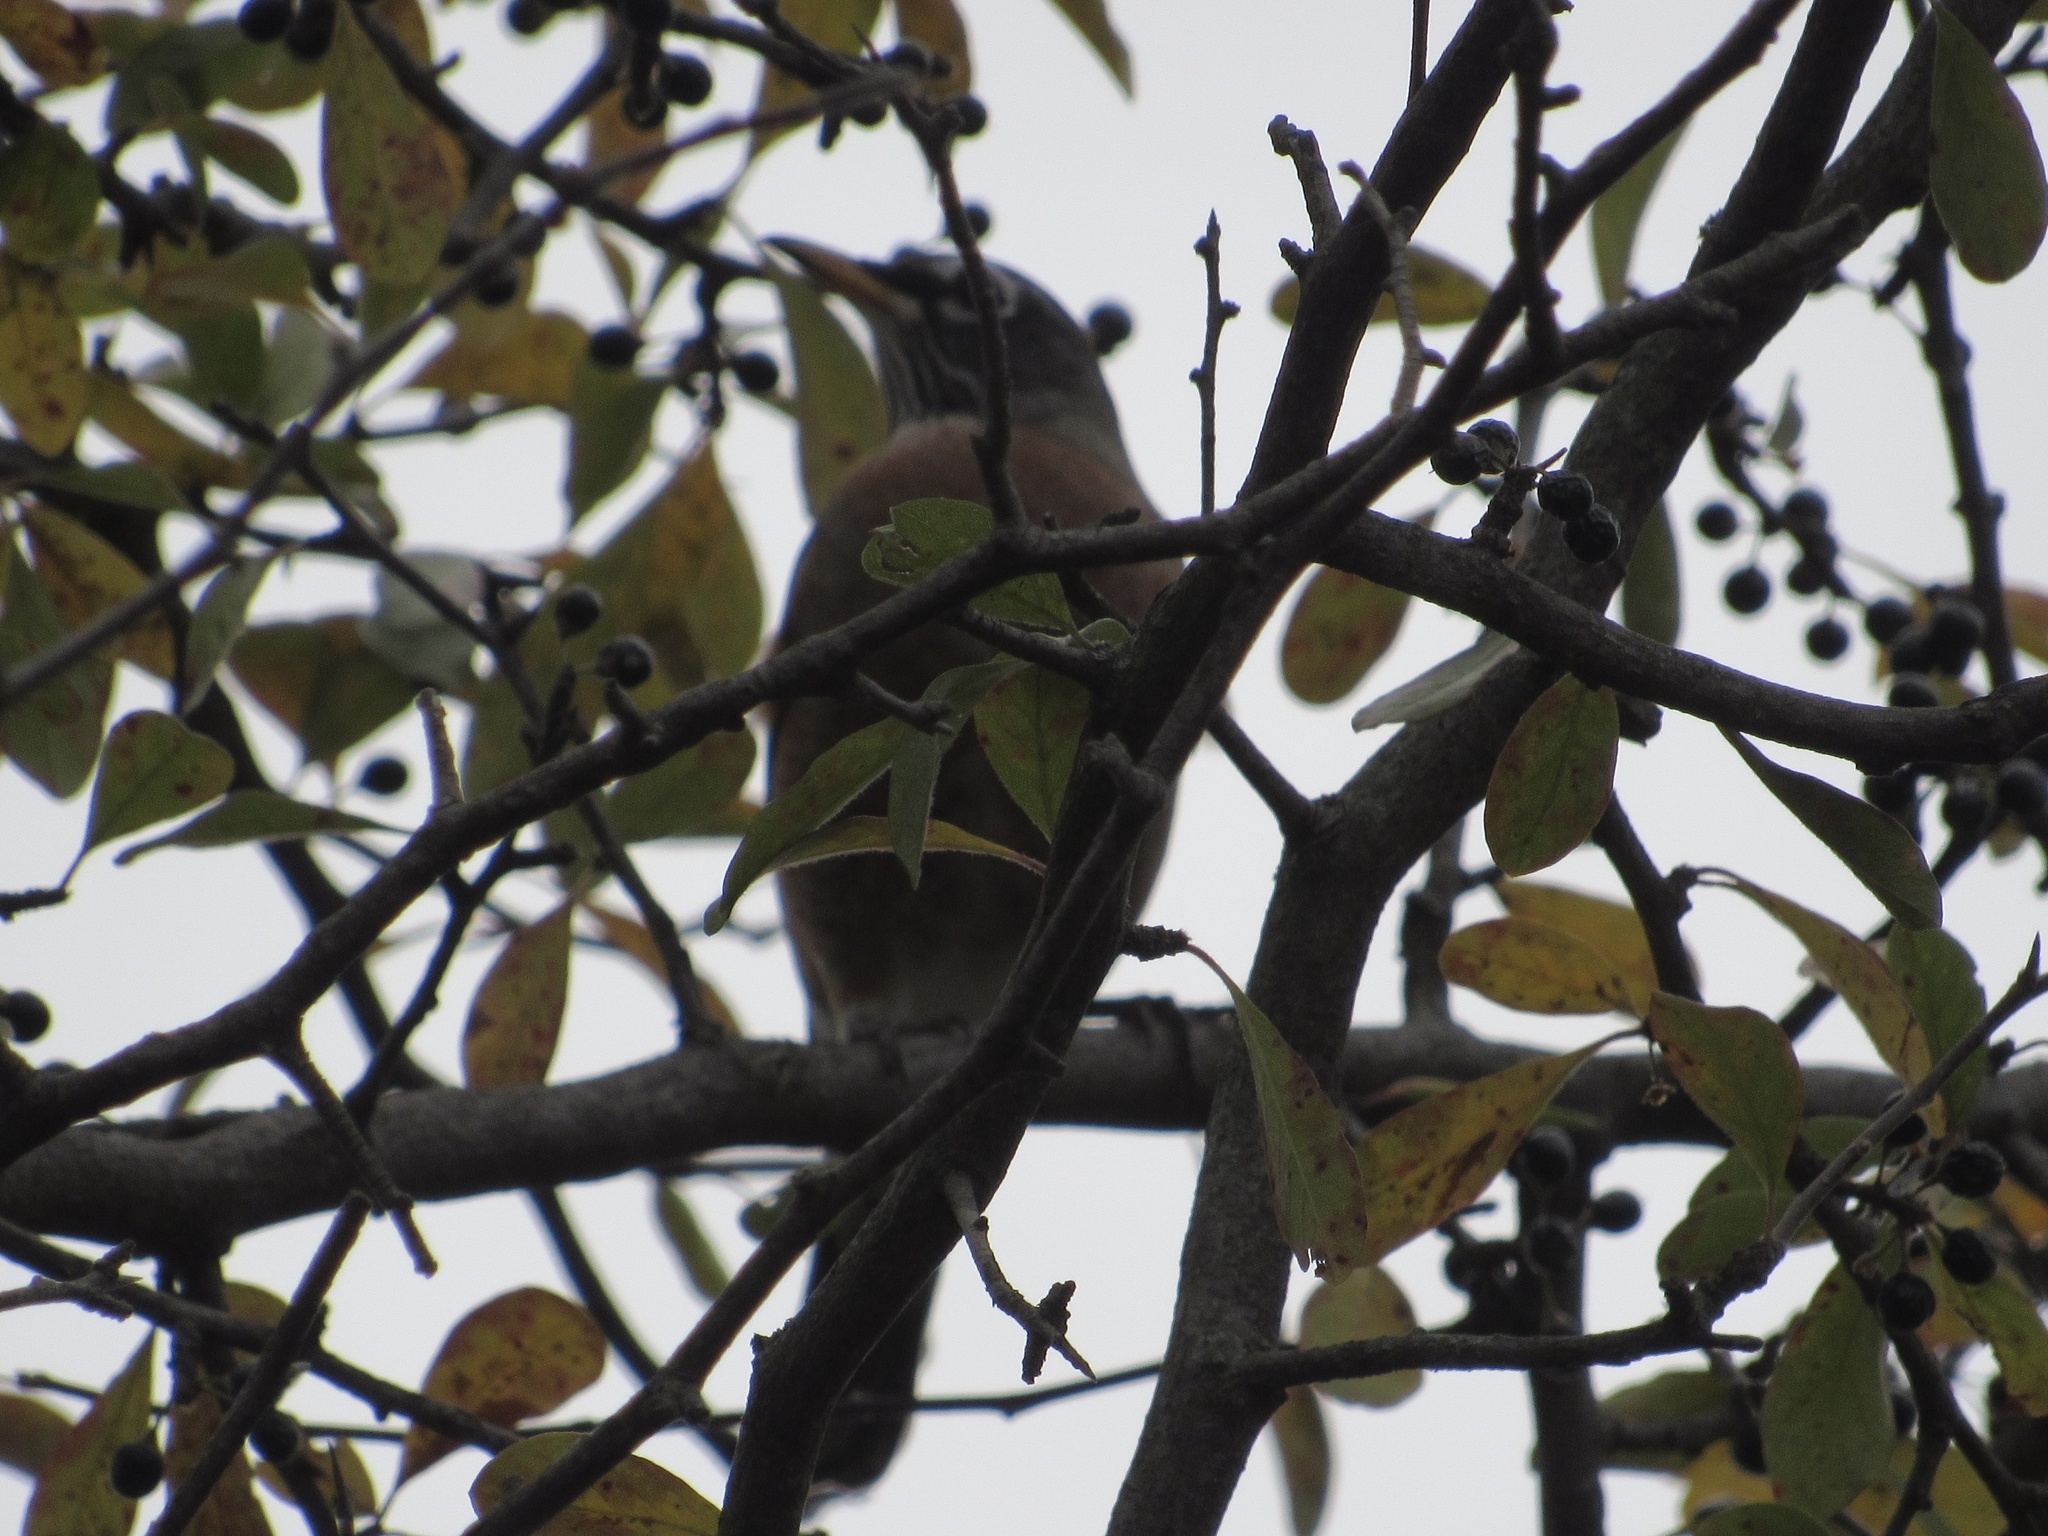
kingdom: Animalia
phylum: Chordata
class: Aves
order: Passeriformes
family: Turdidae
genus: Turdus
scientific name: Turdus migratorius
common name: American robin
